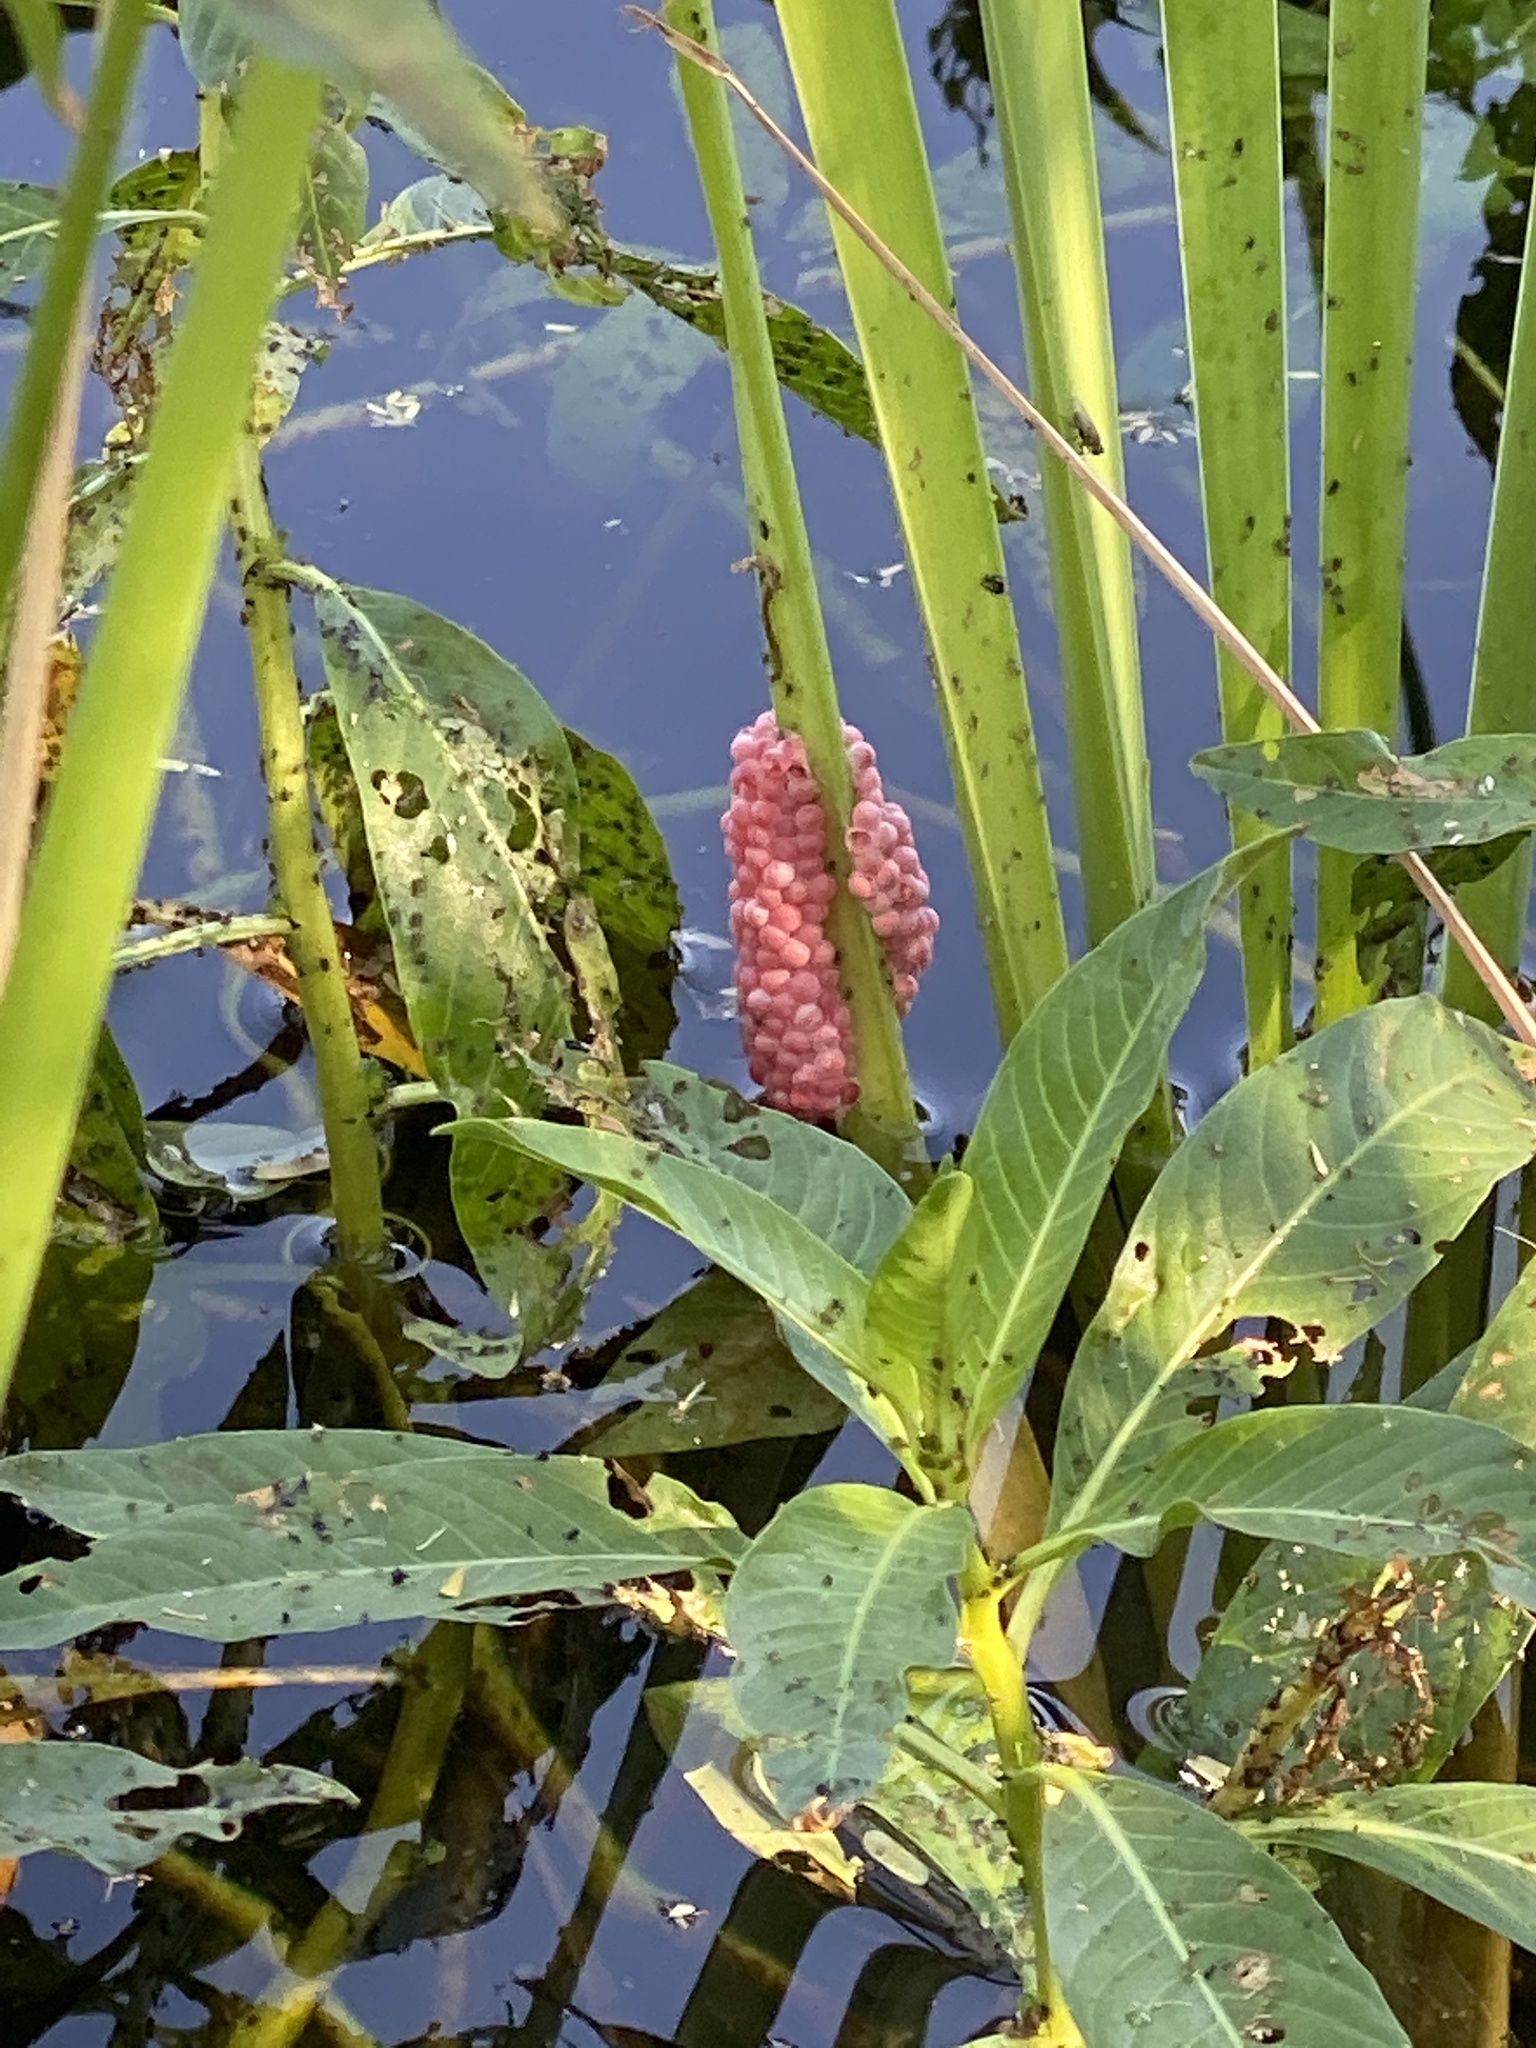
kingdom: Animalia
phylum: Mollusca
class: Gastropoda
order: Architaenioglossa
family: Ampullariidae
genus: Pomacea
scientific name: Pomacea canaliculata
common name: Channeled applesnail
